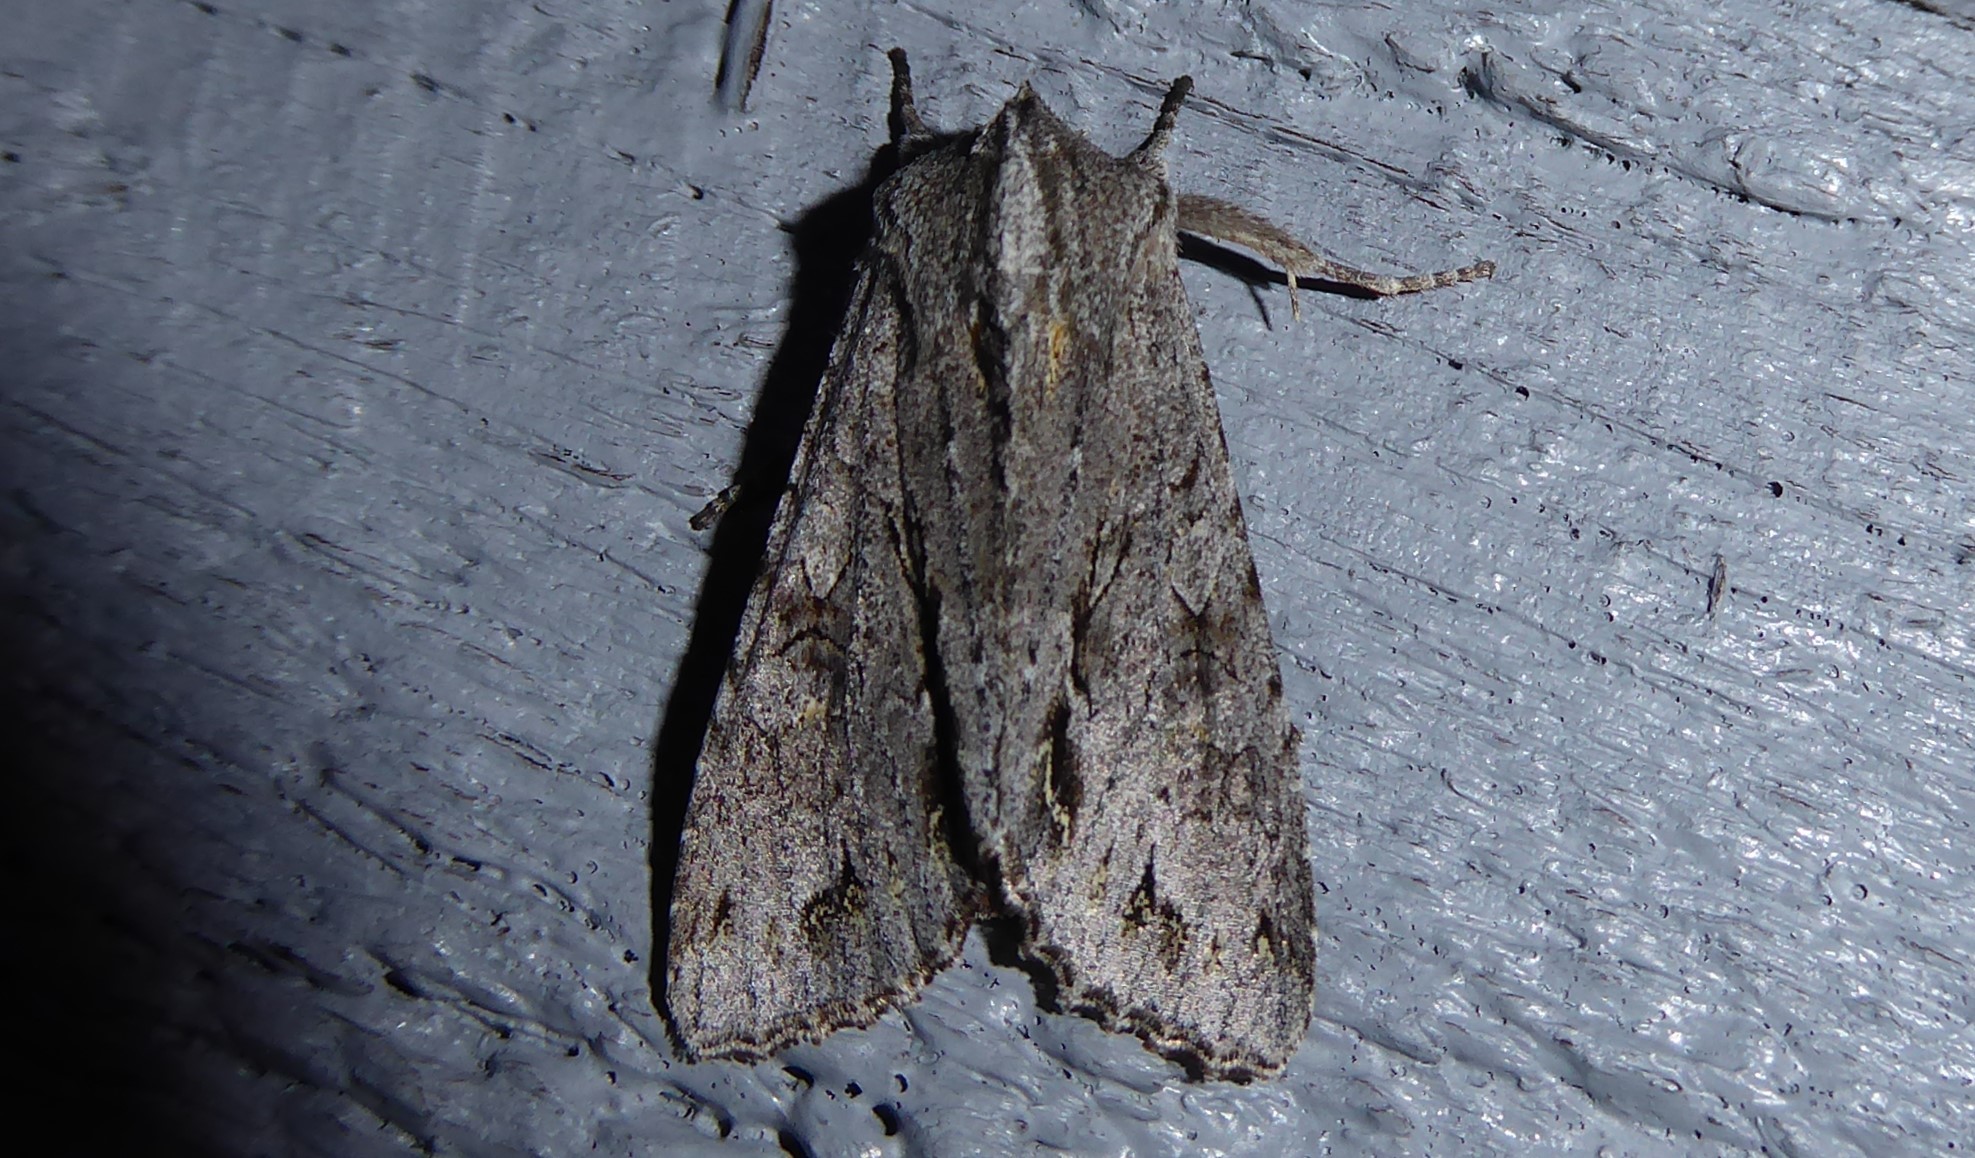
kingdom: Animalia
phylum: Arthropoda
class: Insecta
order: Lepidoptera
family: Noctuidae
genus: Ichneutica
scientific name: Ichneutica
